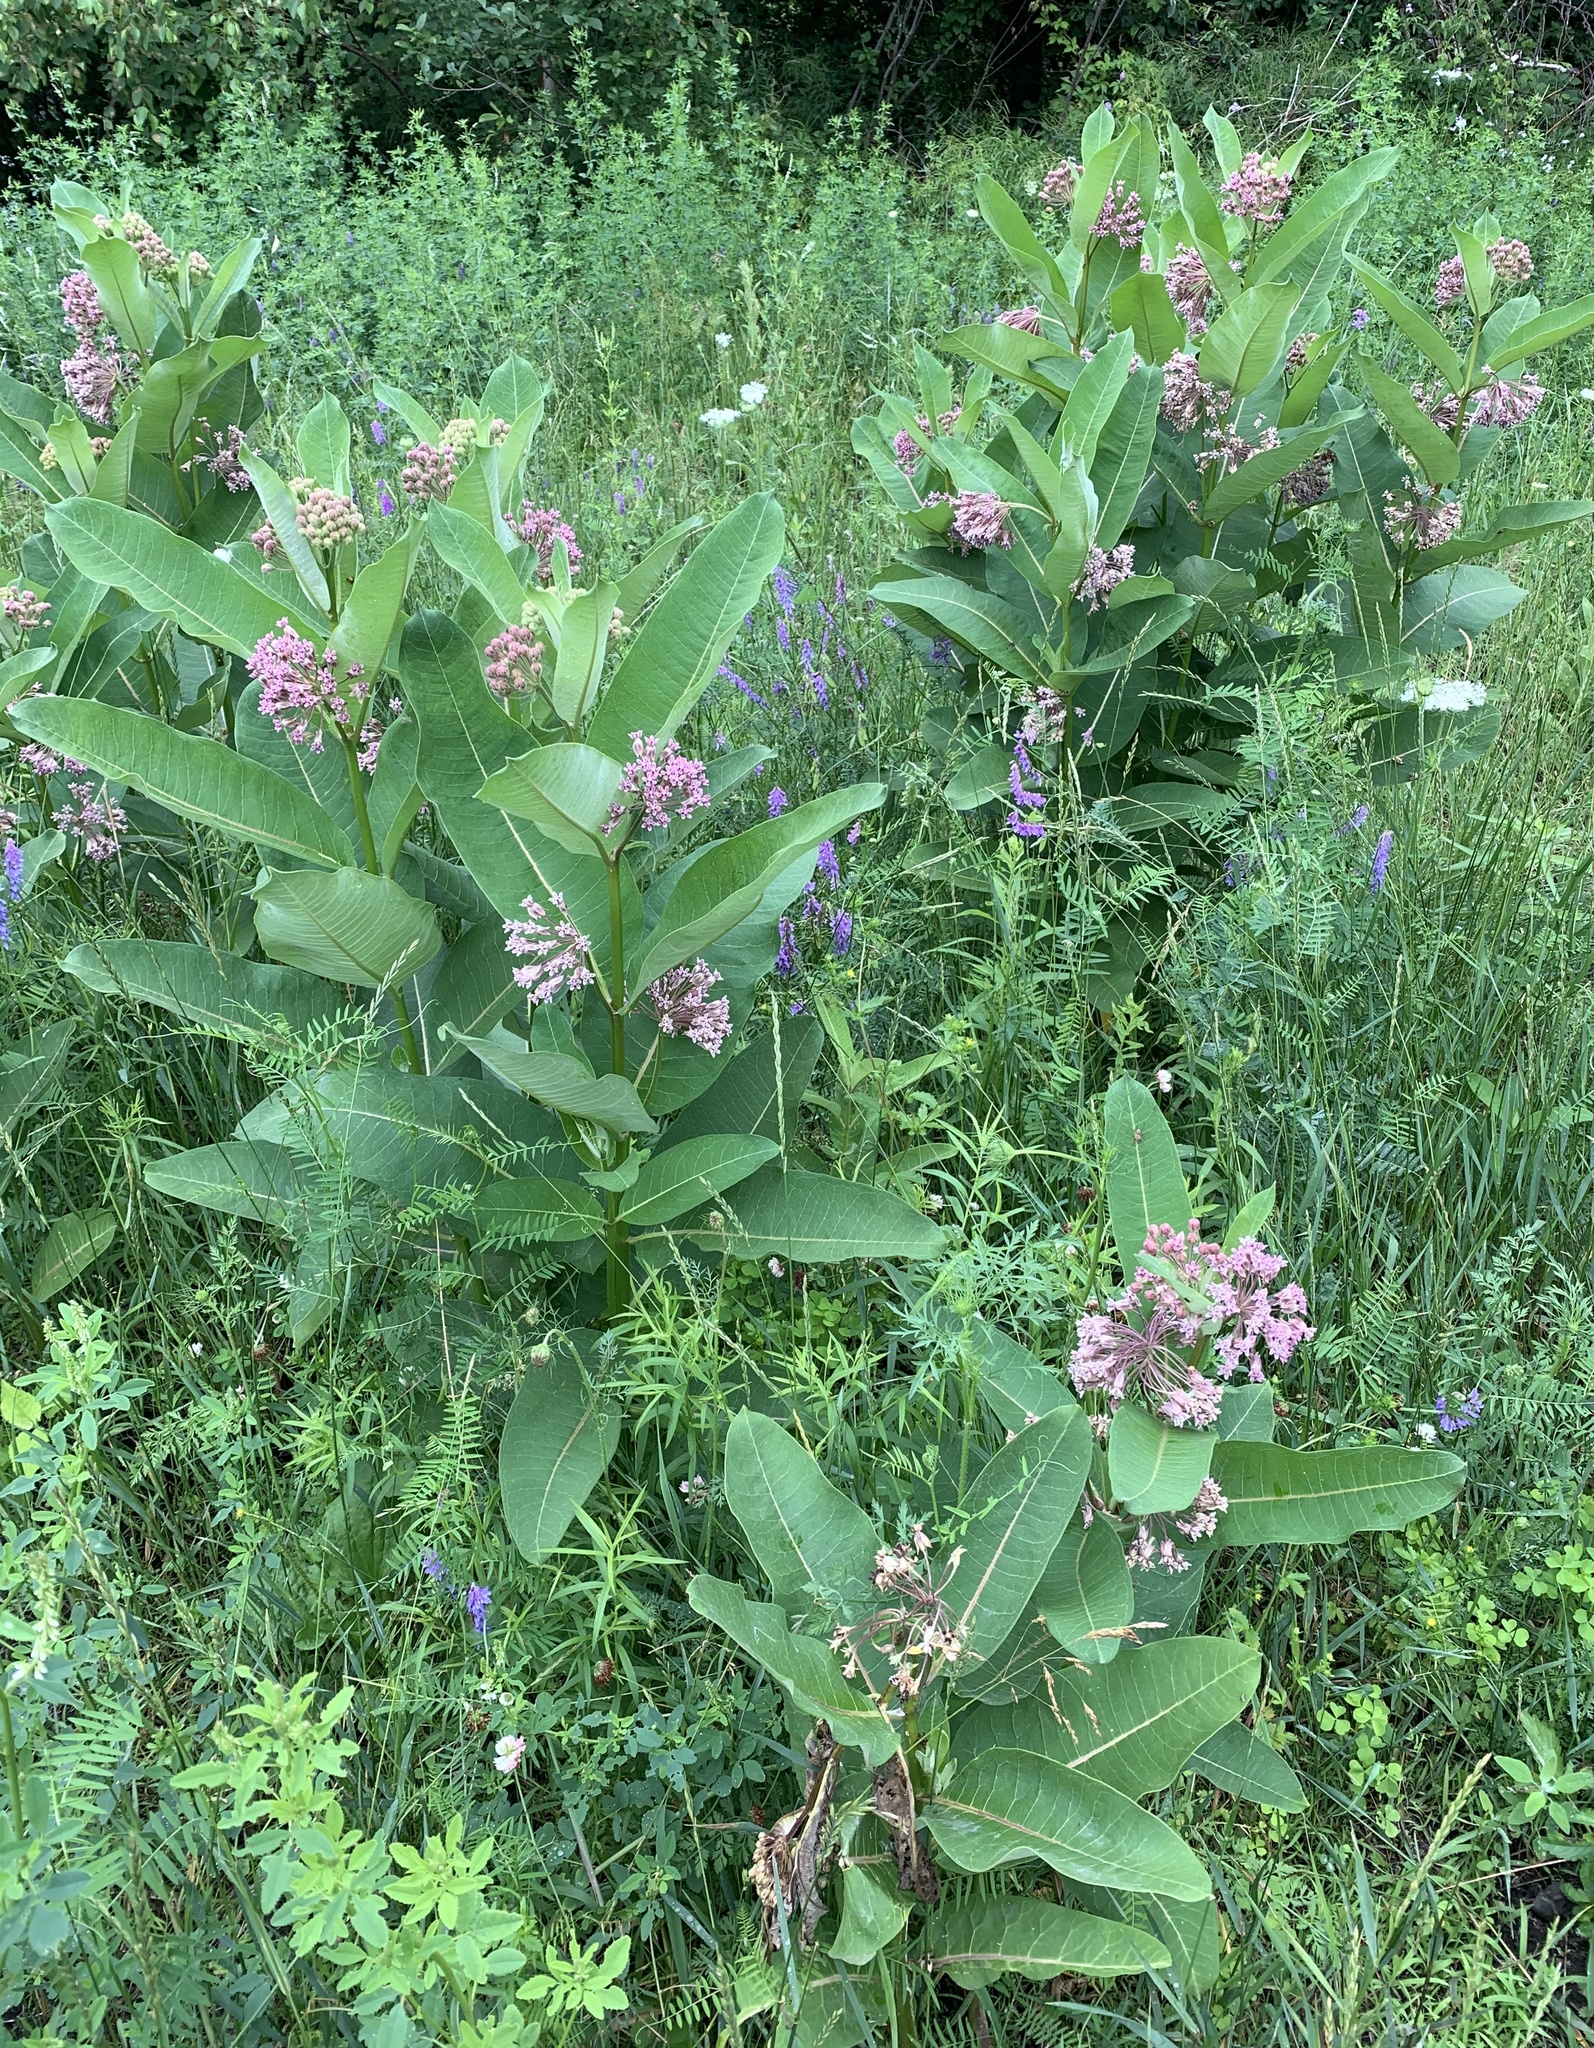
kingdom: Plantae
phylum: Tracheophyta
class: Magnoliopsida
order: Gentianales
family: Apocynaceae
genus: Asclepias
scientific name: Asclepias syriaca
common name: Common milkweed
